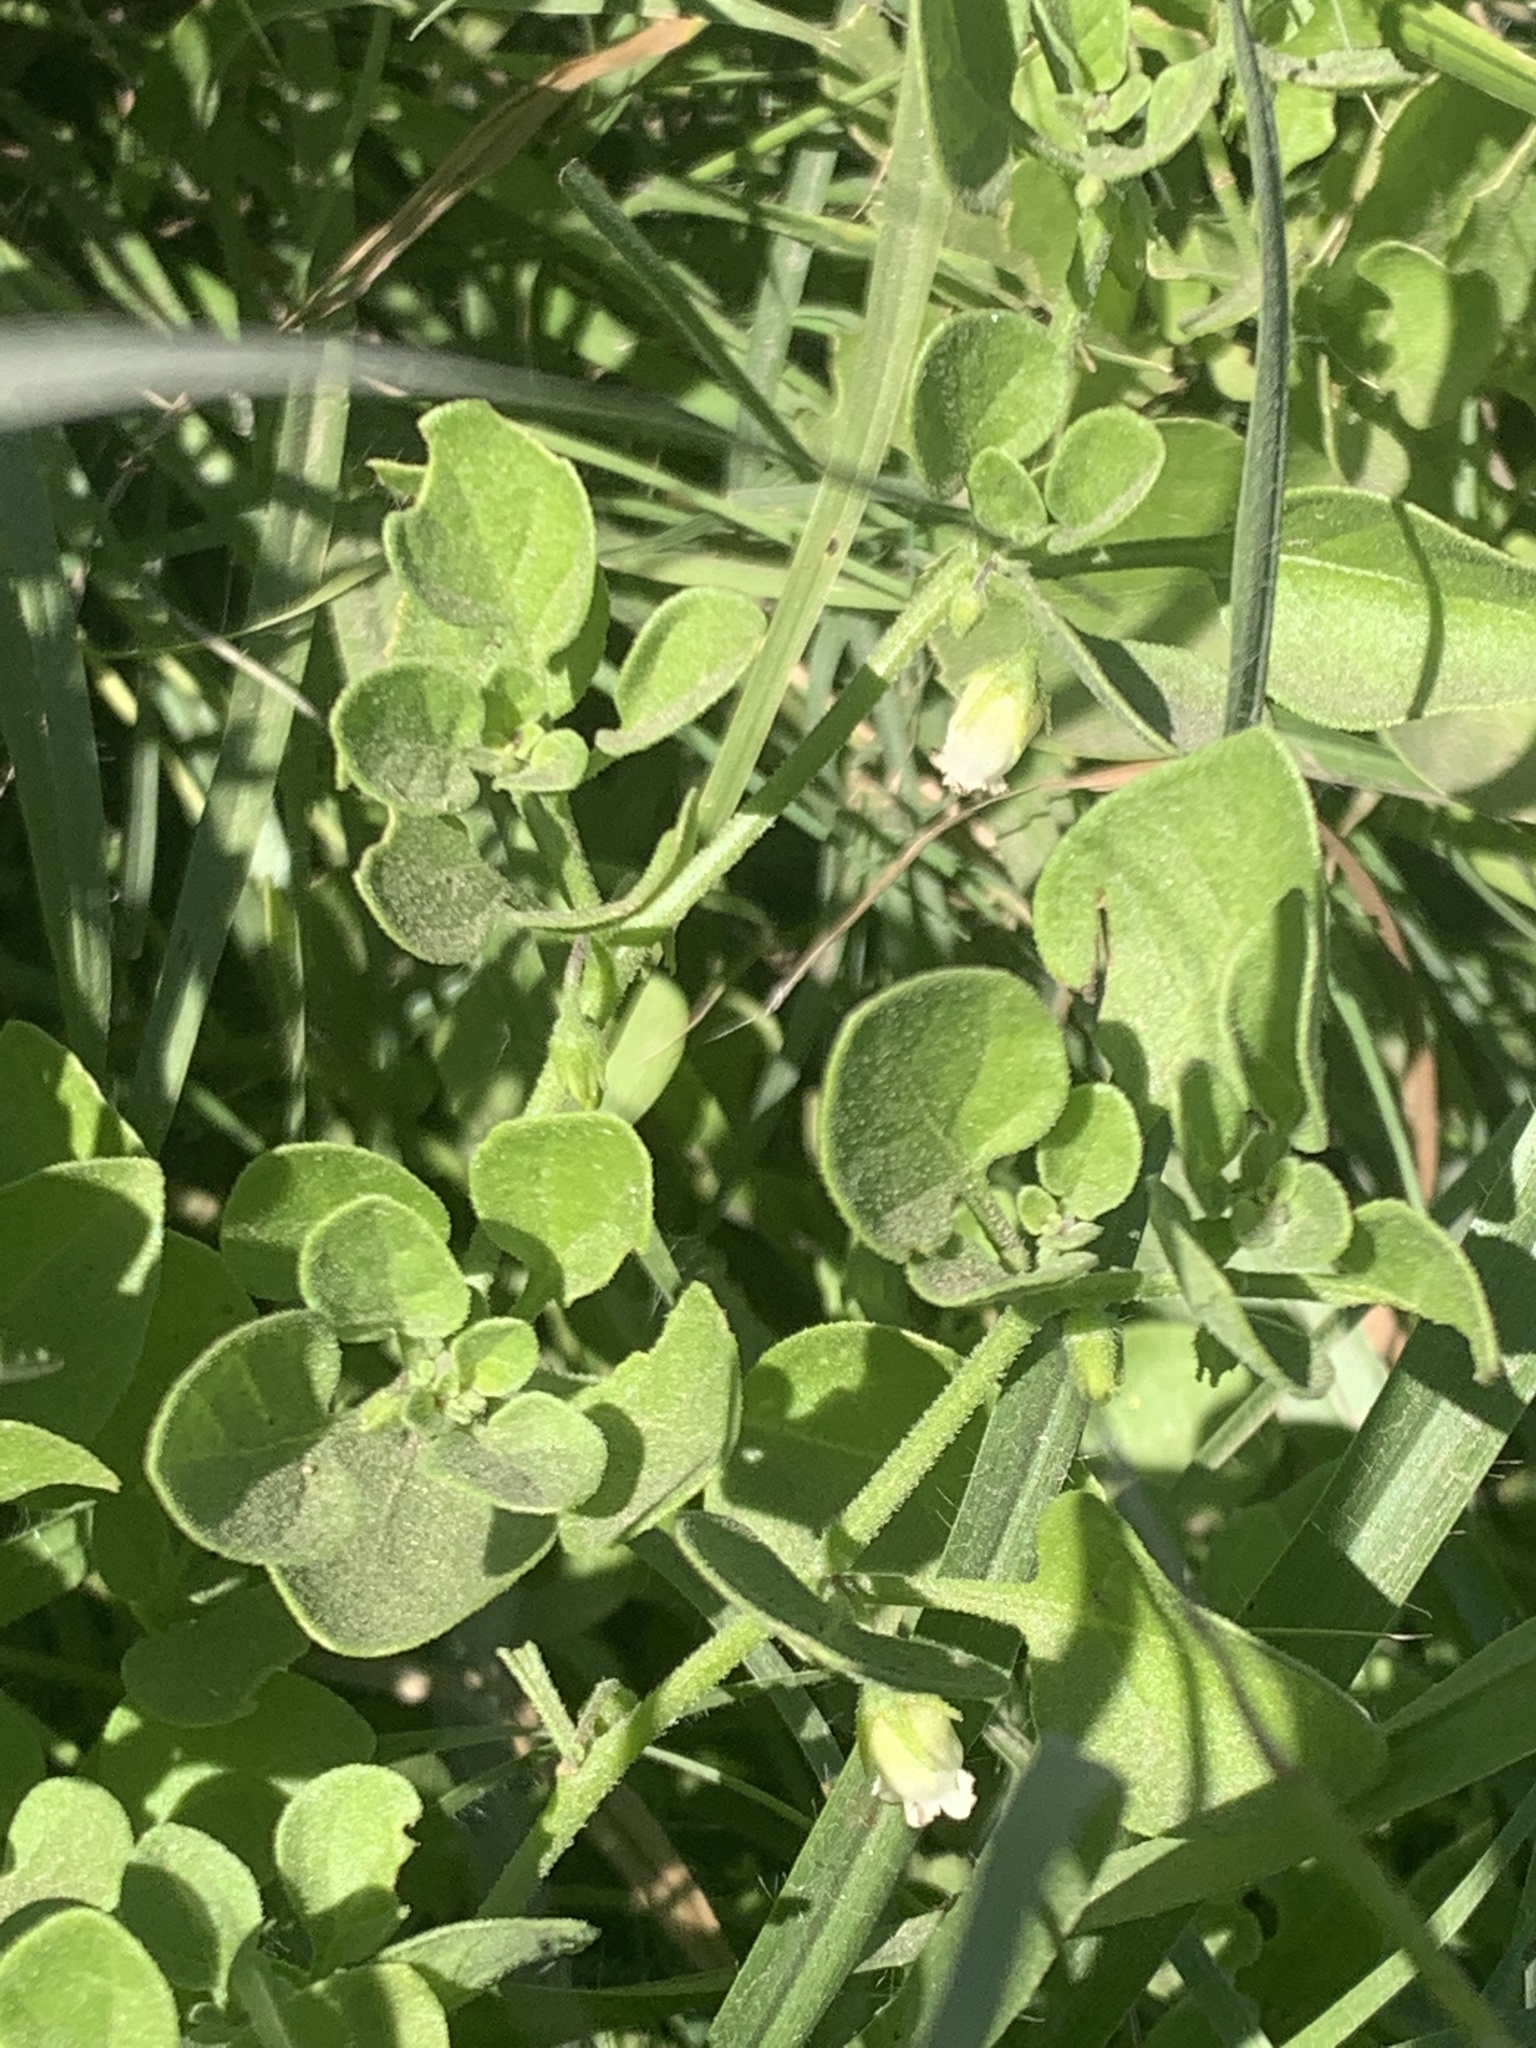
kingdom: Plantae
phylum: Tracheophyta
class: Magnoliopsida
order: Solanales
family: Solanaceae
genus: Salpichroa
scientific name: Salpichroa origanifolia
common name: Lily-of-the-valley-vine
